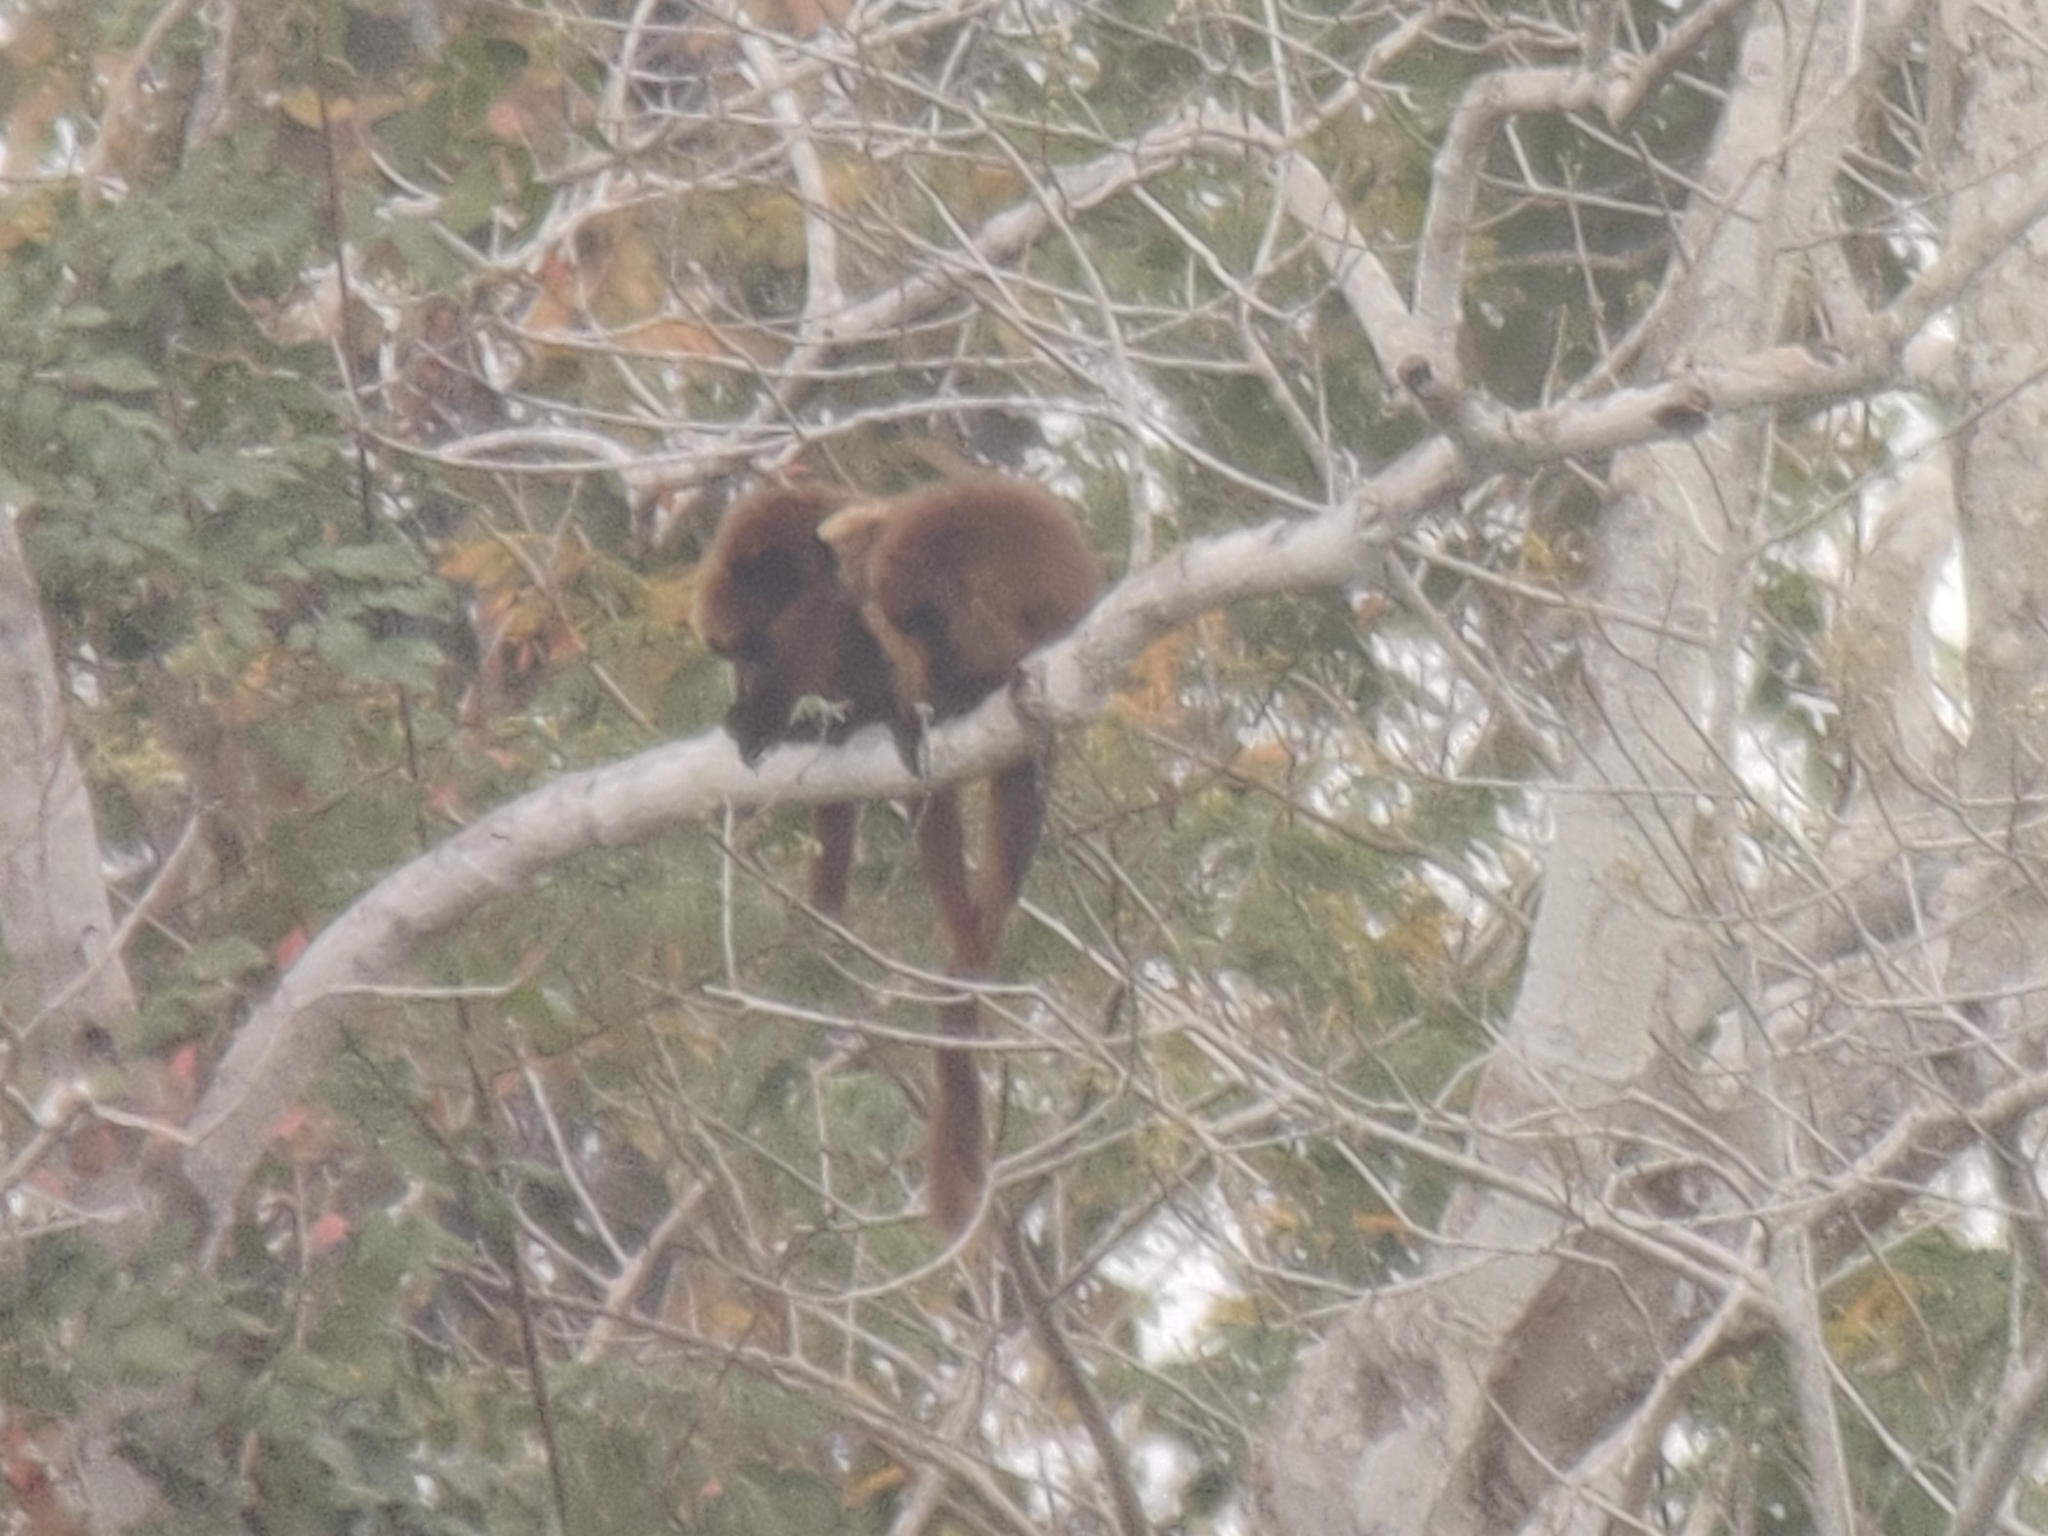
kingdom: Animalia
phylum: Chordata
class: Mammalia
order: Primates
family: Atelidae
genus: Alouatta
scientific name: Alouatta guariba
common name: Brown howler monkey
